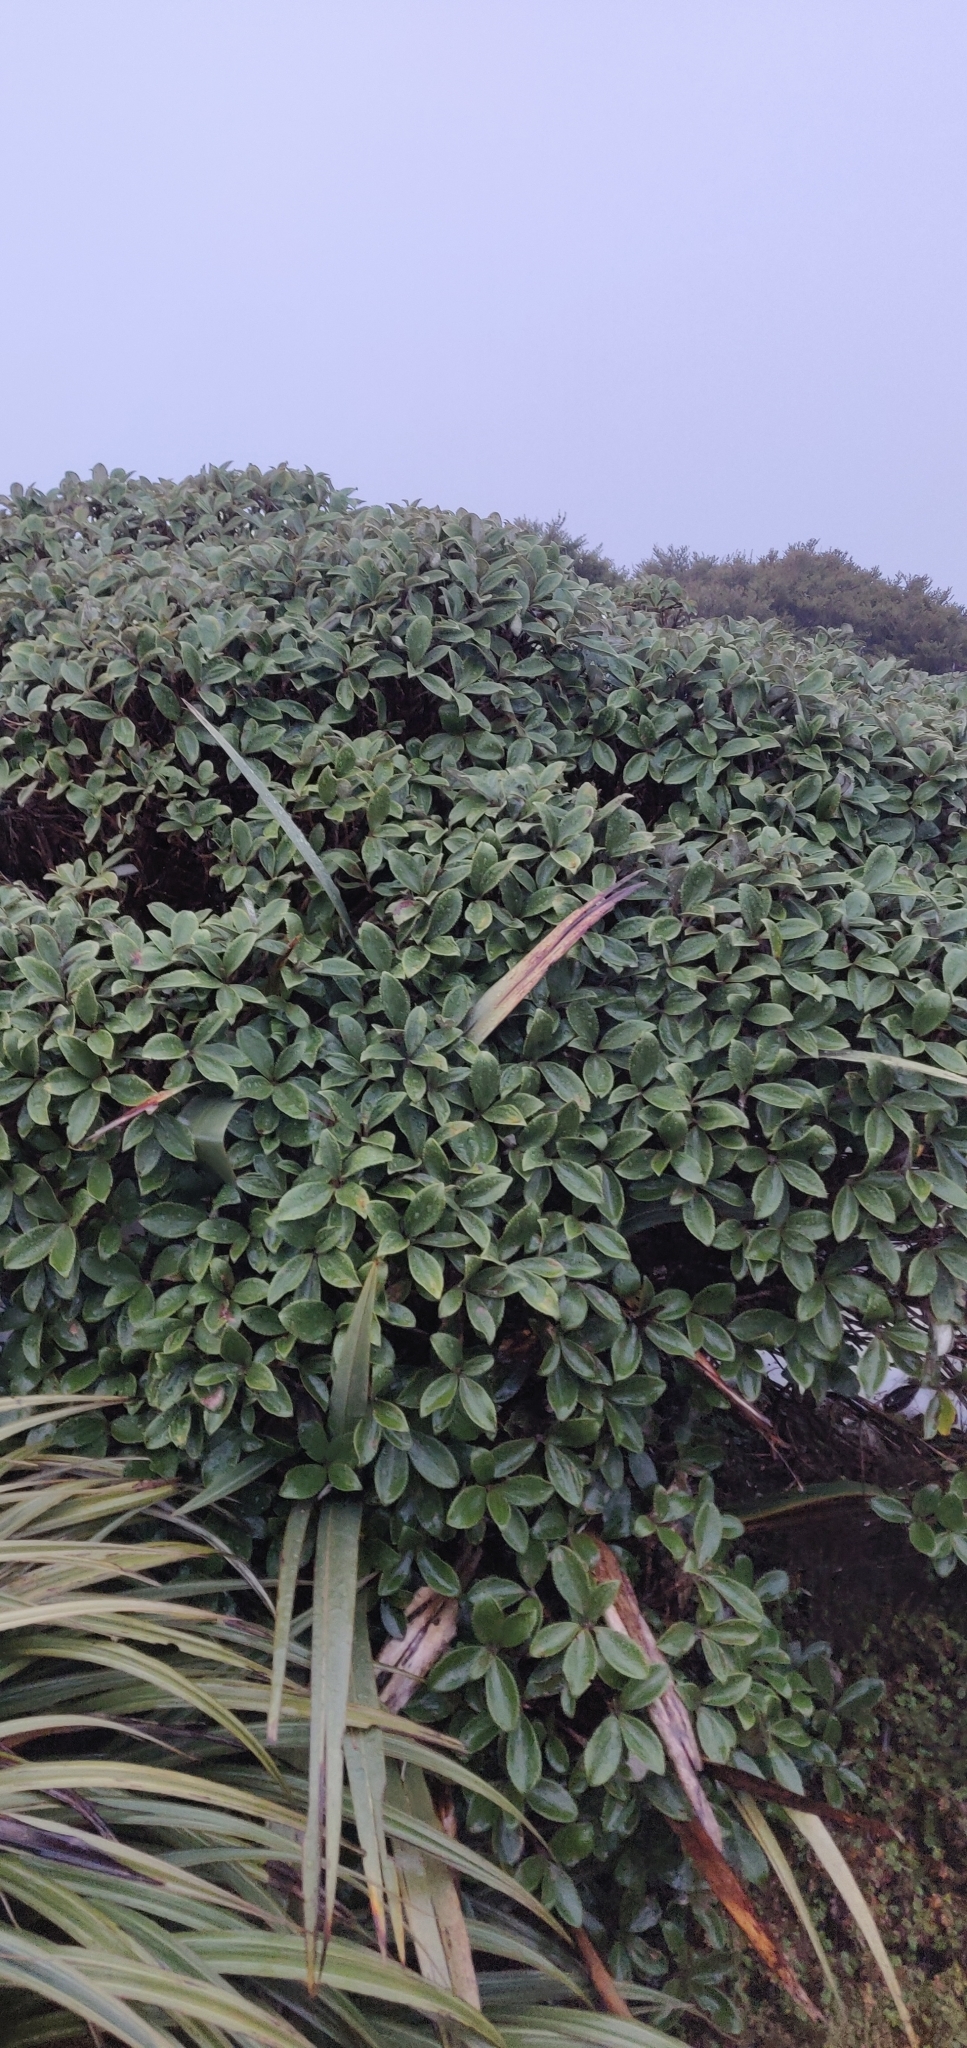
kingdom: Plantae
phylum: Tracheophyta
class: Magnoliopsida
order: Asterales
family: Asteraceae
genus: Macrolearia
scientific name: Macrolearia colensoi
